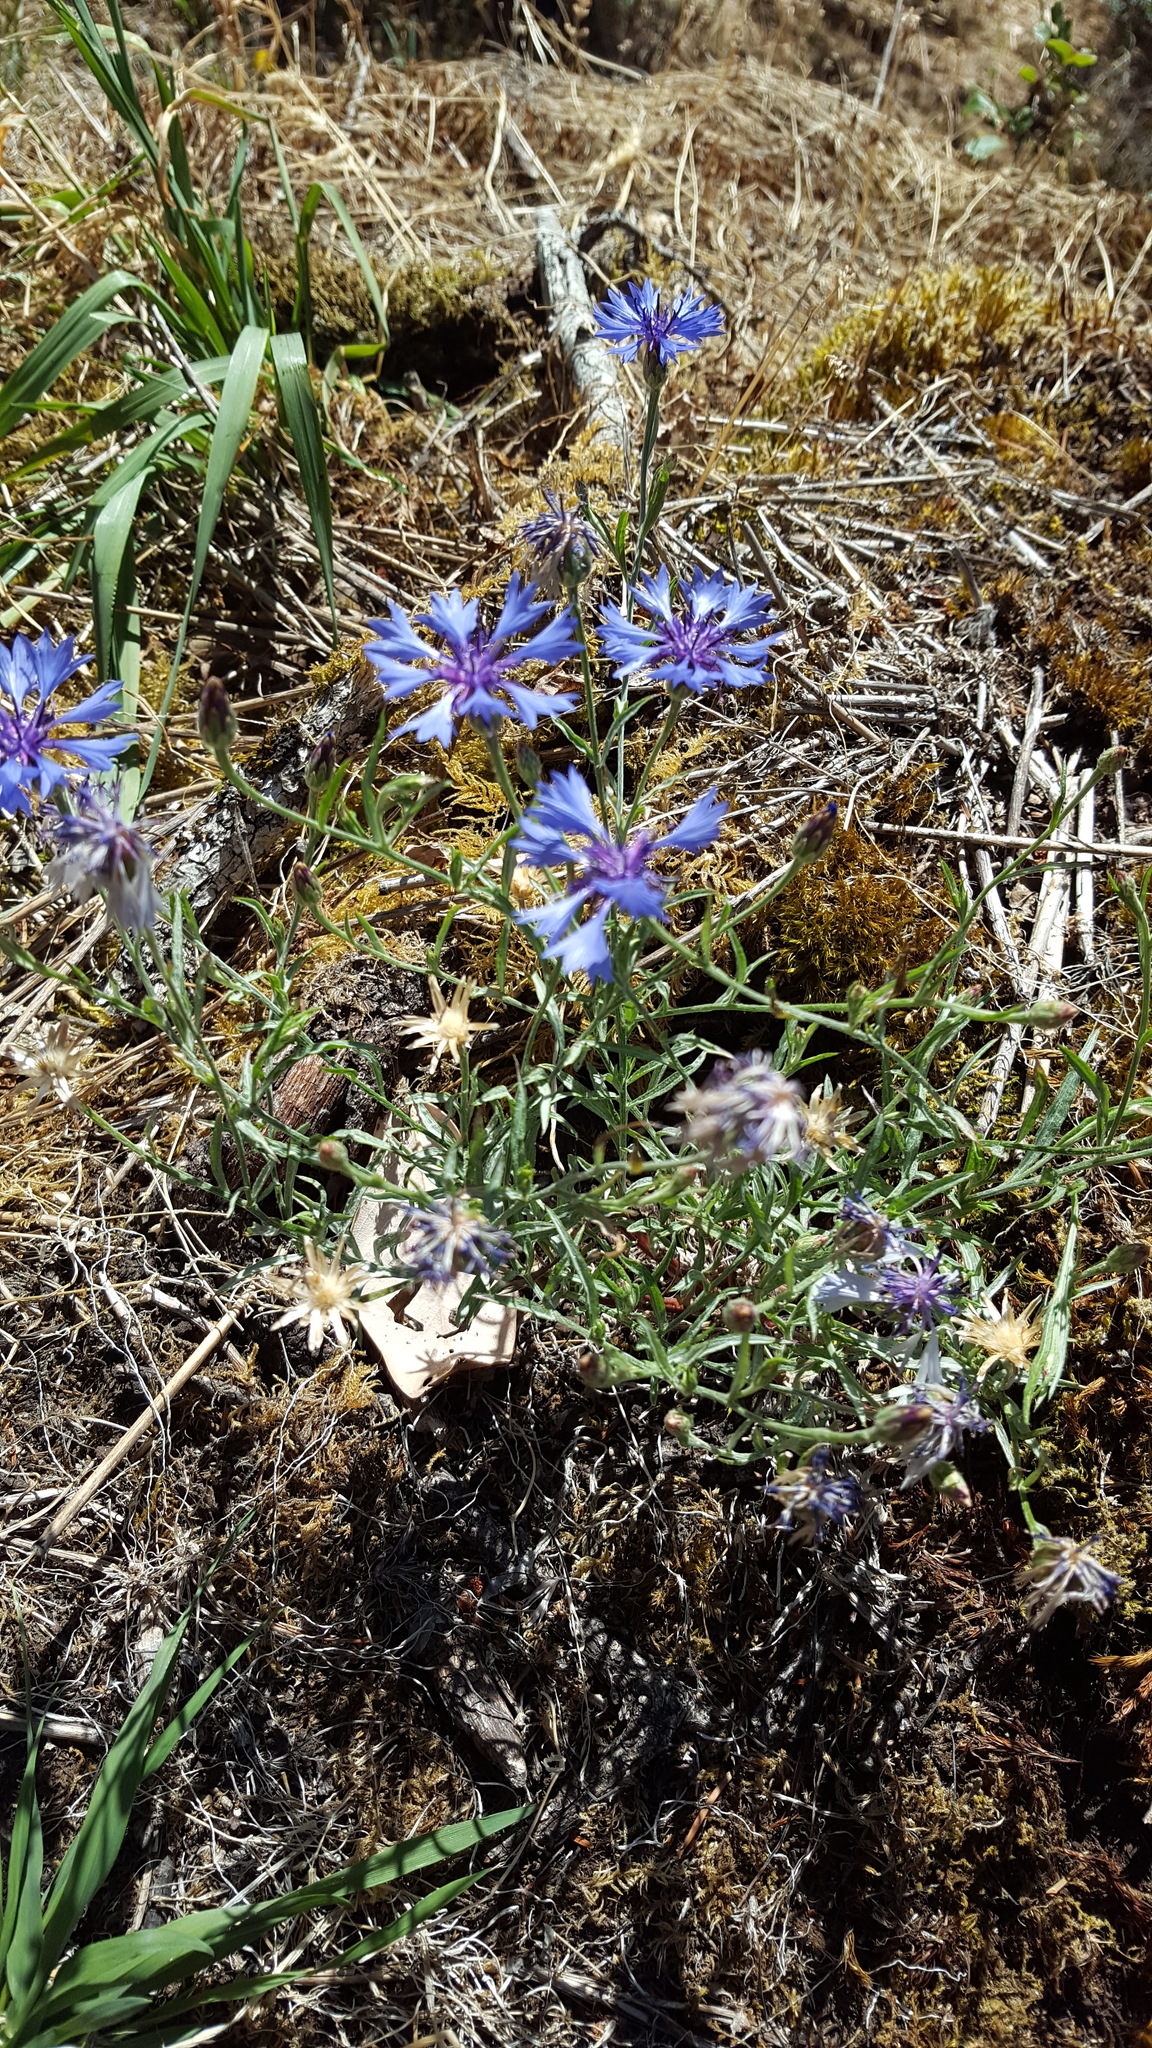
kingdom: Plantae
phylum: Tracheophyta
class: Magnoliopsida
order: Asterales
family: Asteraceae
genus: Centaurea
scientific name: Centaurea cyanus
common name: Cornflower
